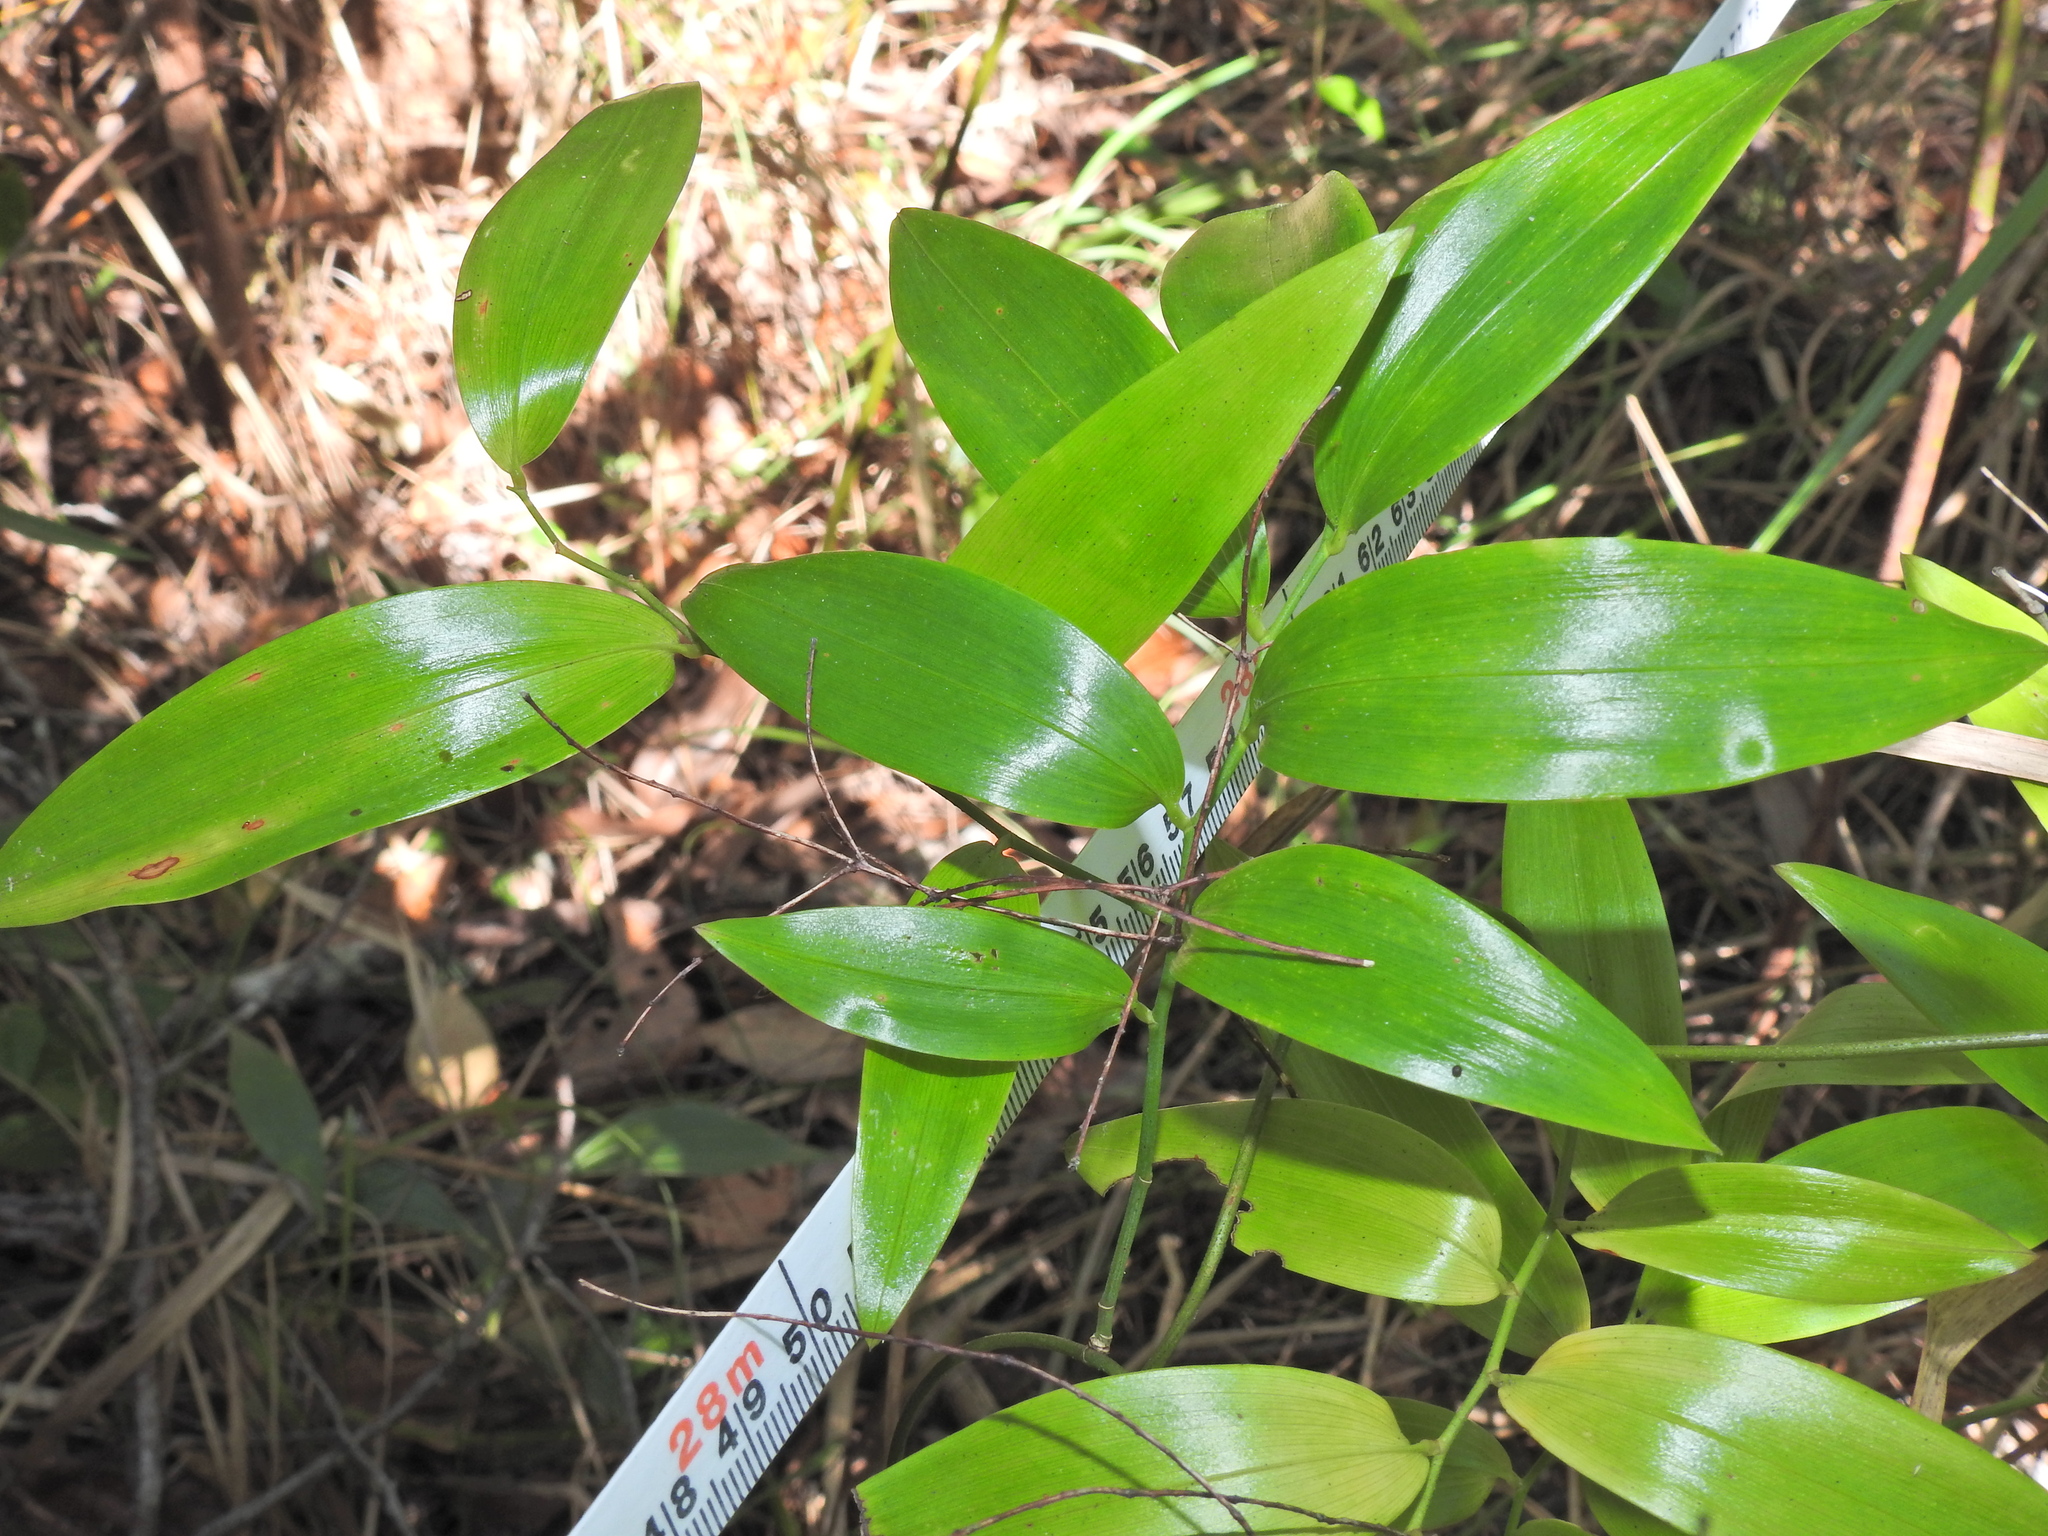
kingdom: Plantae
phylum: Tracheophyta
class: Liliopsida
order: Asparagales
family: Asphodelaceae
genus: Geitonoplesium
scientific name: Geitonoplesium cymosum
